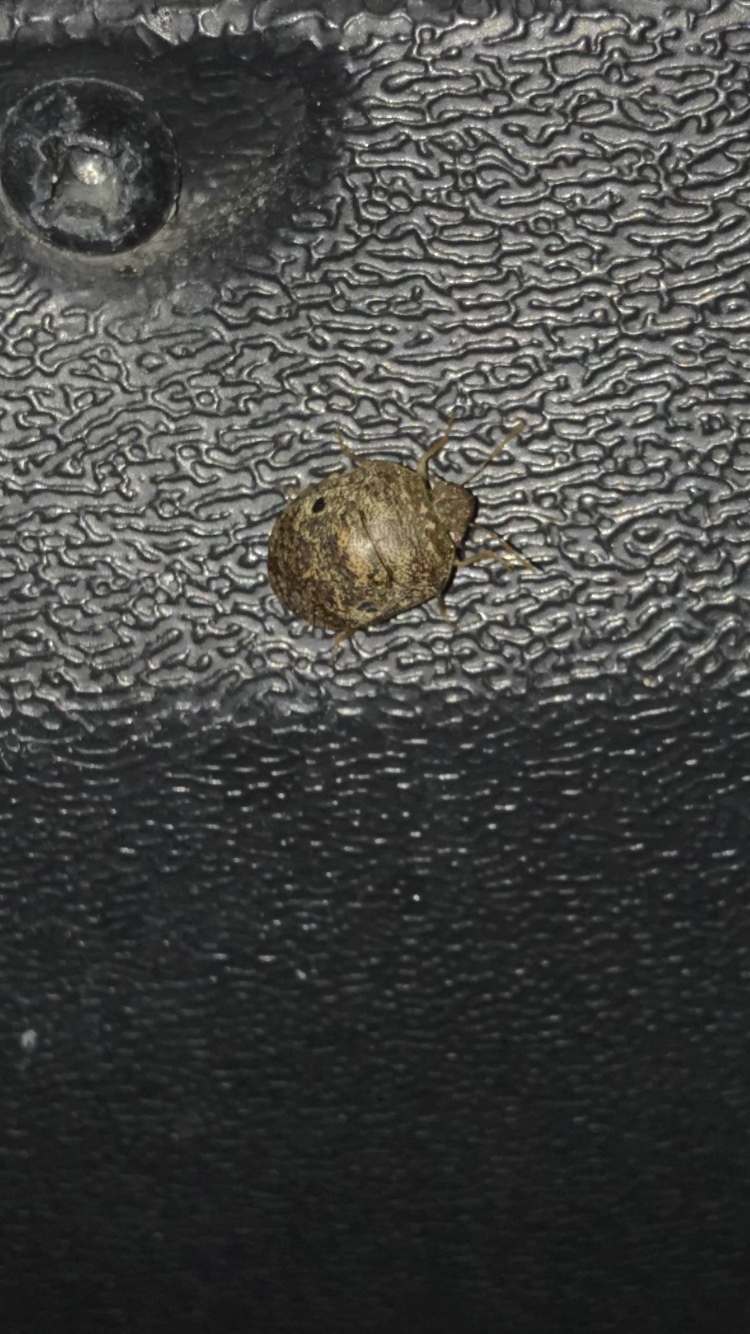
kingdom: Animalia
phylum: Arthropoda
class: Insecta
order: Hemiptera
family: Scutelleridae
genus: Diolcus
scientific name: Diolcus chrysorrhoeus
